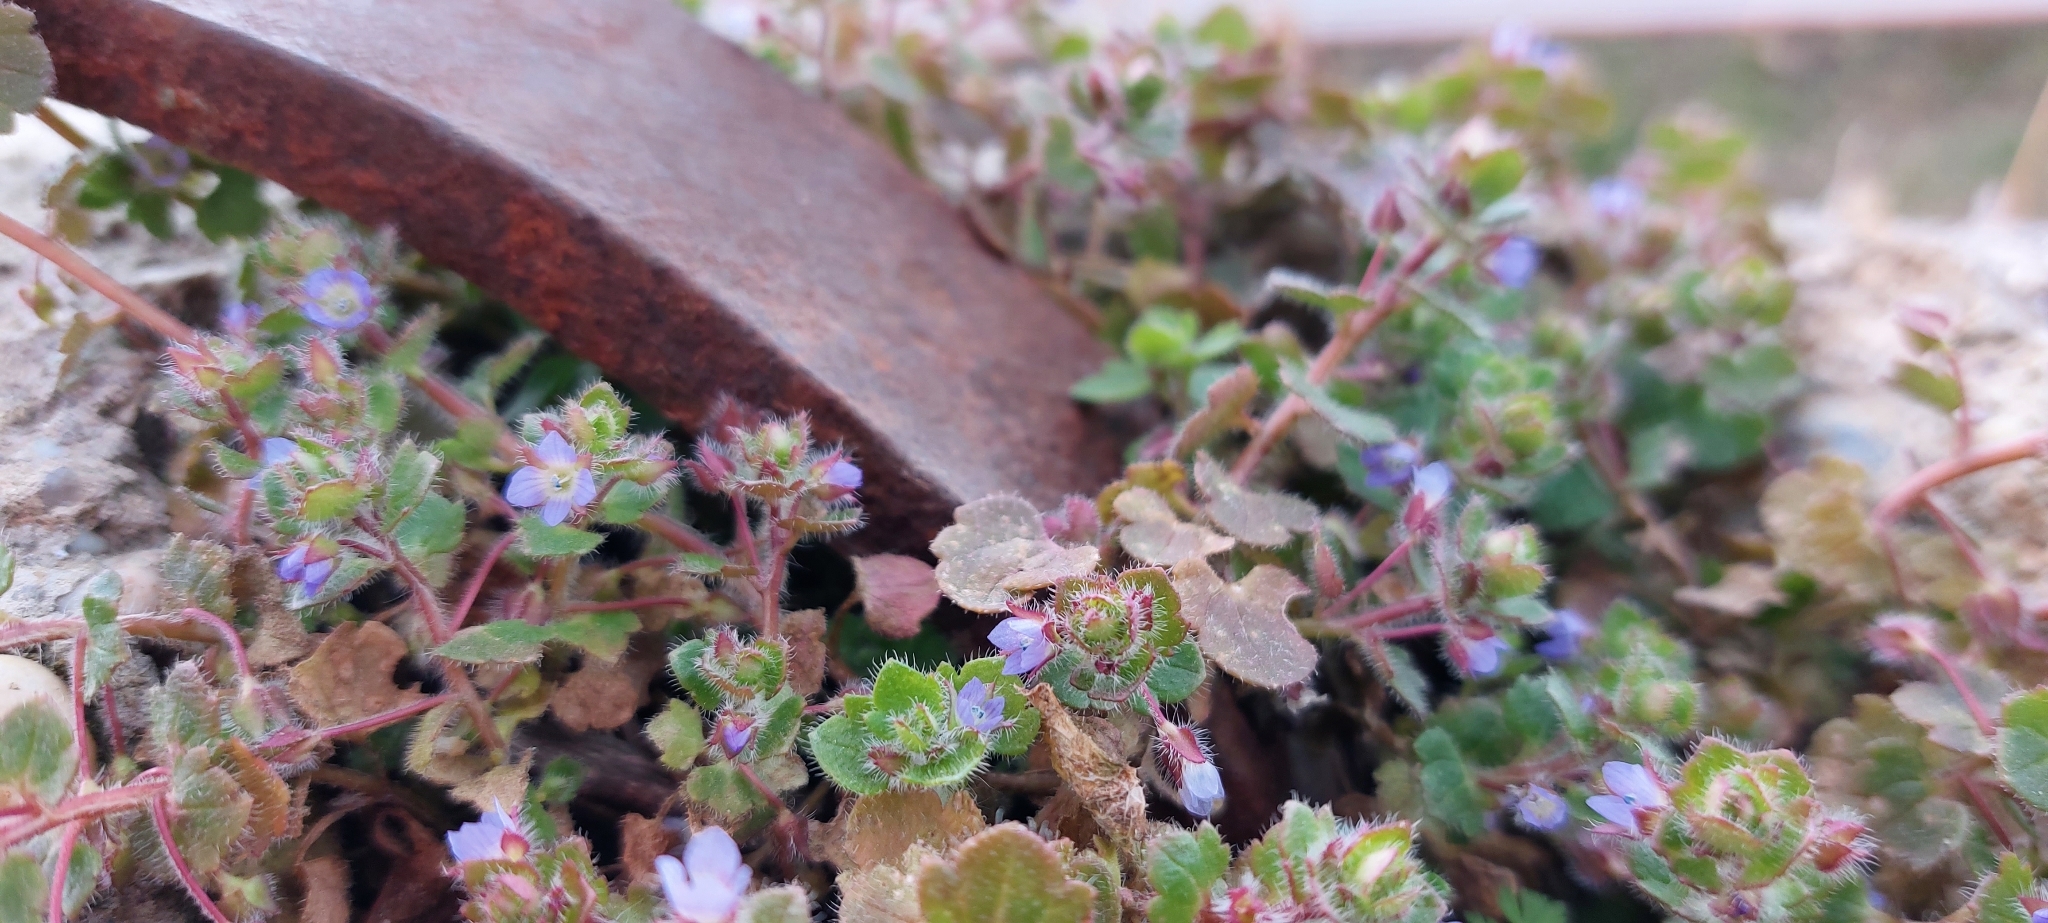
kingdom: Plantae
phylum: Tracheophyta
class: Magnoliopsida
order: Lamiales
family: Plantaginaceae
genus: Veronica
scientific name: Veronica hederifolia
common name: Ivy-leaved speedwell
